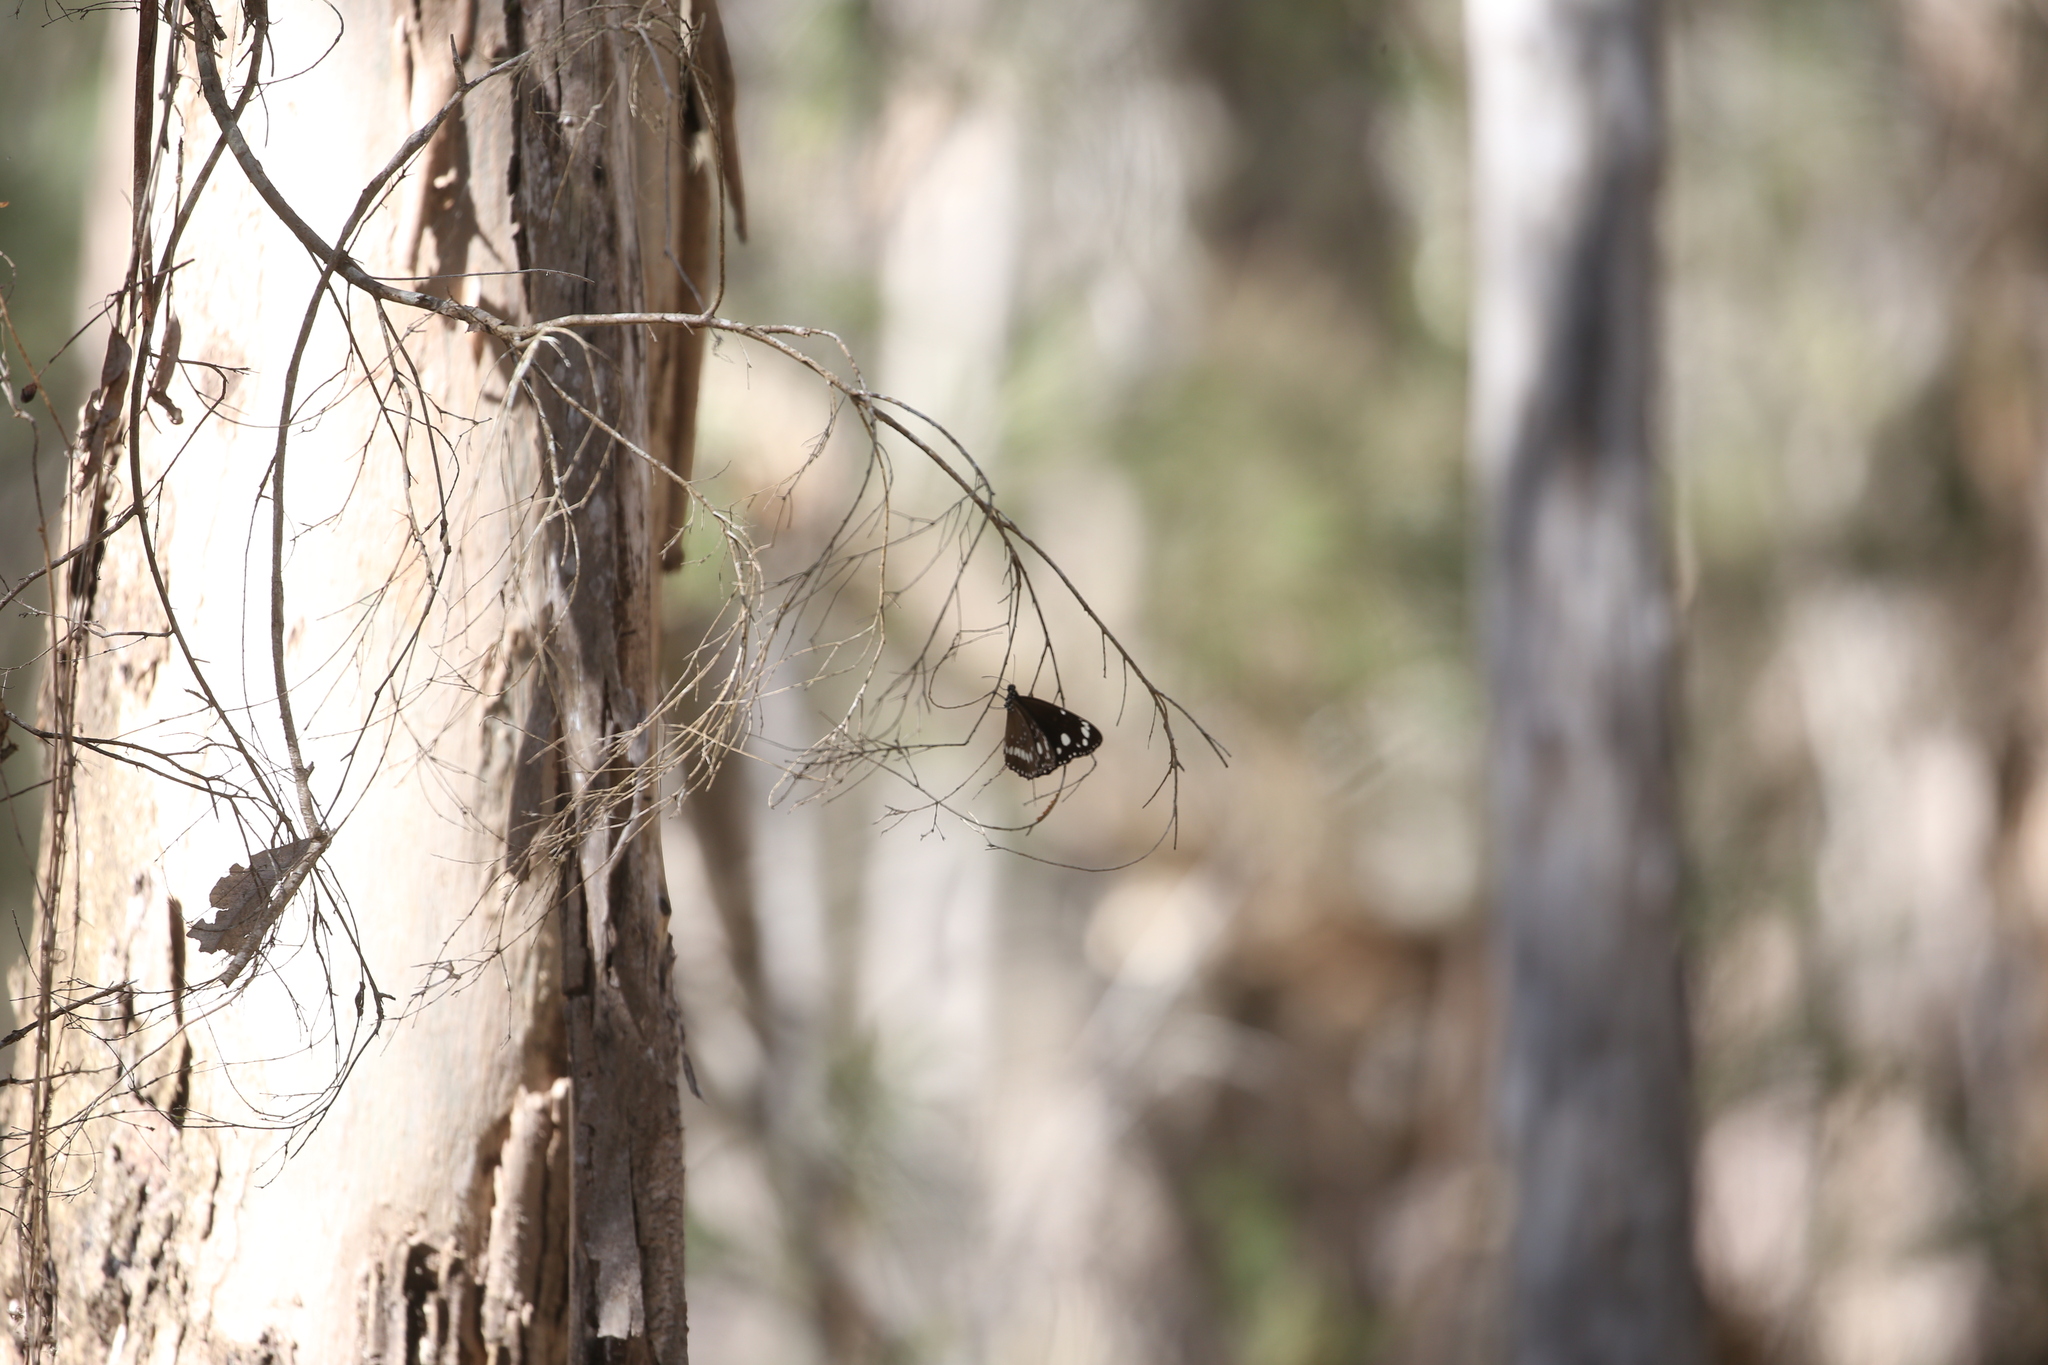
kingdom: Animalia
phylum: Arthropoda
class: Insecta
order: Lepidoptera
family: Nymphalidae
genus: Euploea
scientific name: Euploea core
